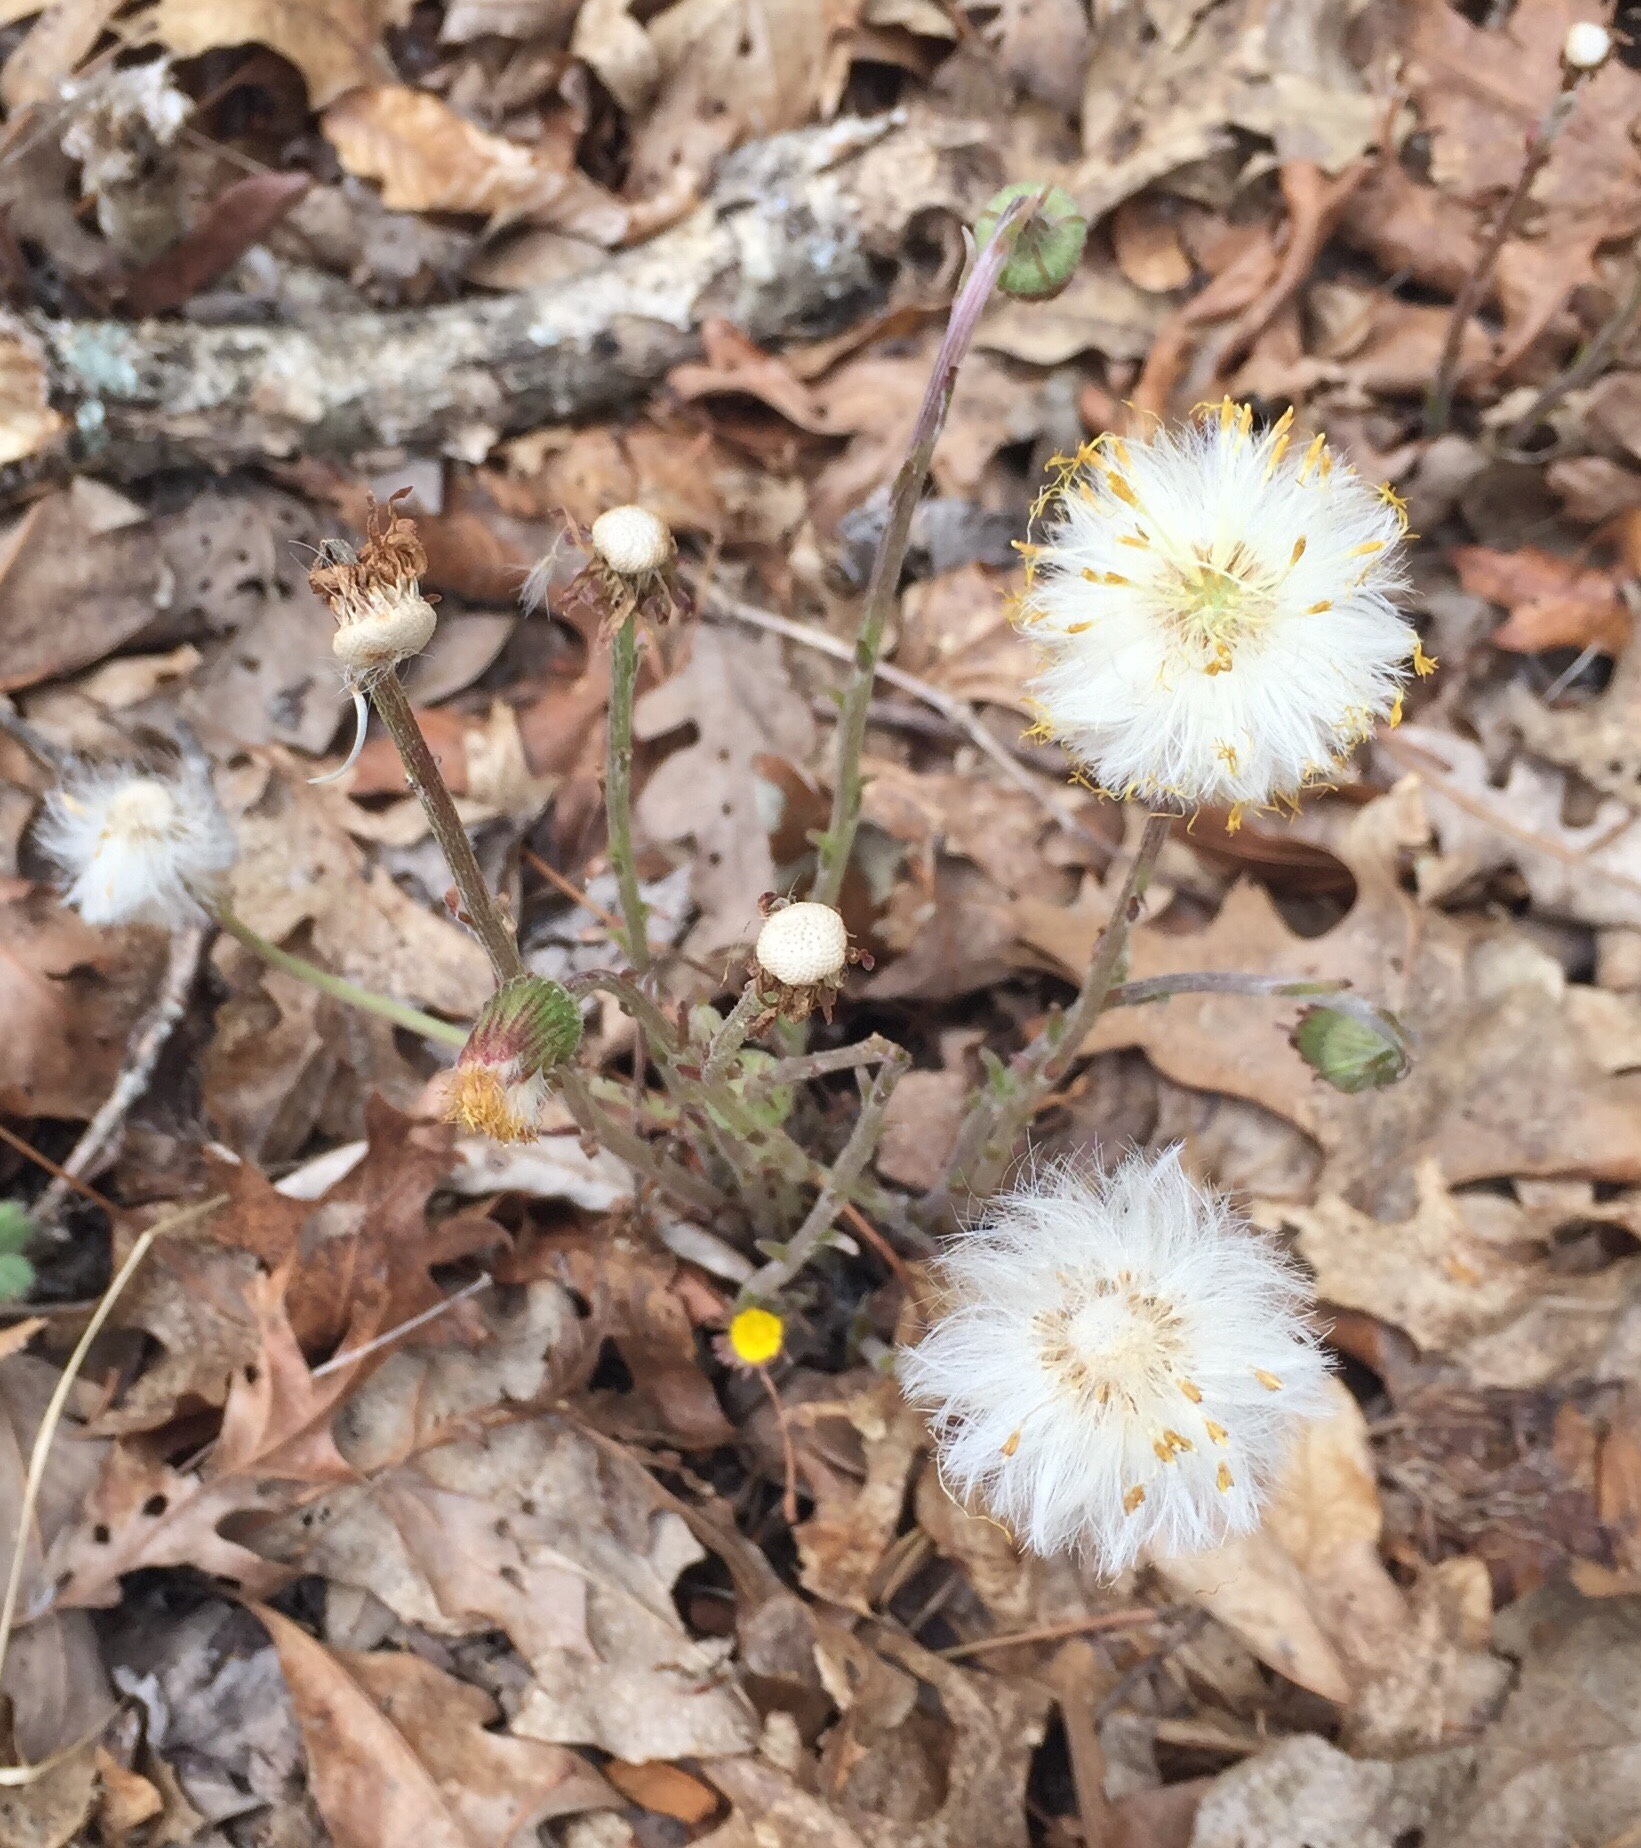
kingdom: Plantae
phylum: Tracheophyta
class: Magnoliopsida
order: Asterales
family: Asteraceae
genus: Tussilago
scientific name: Tussilago farfara
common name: Coltsfoot
